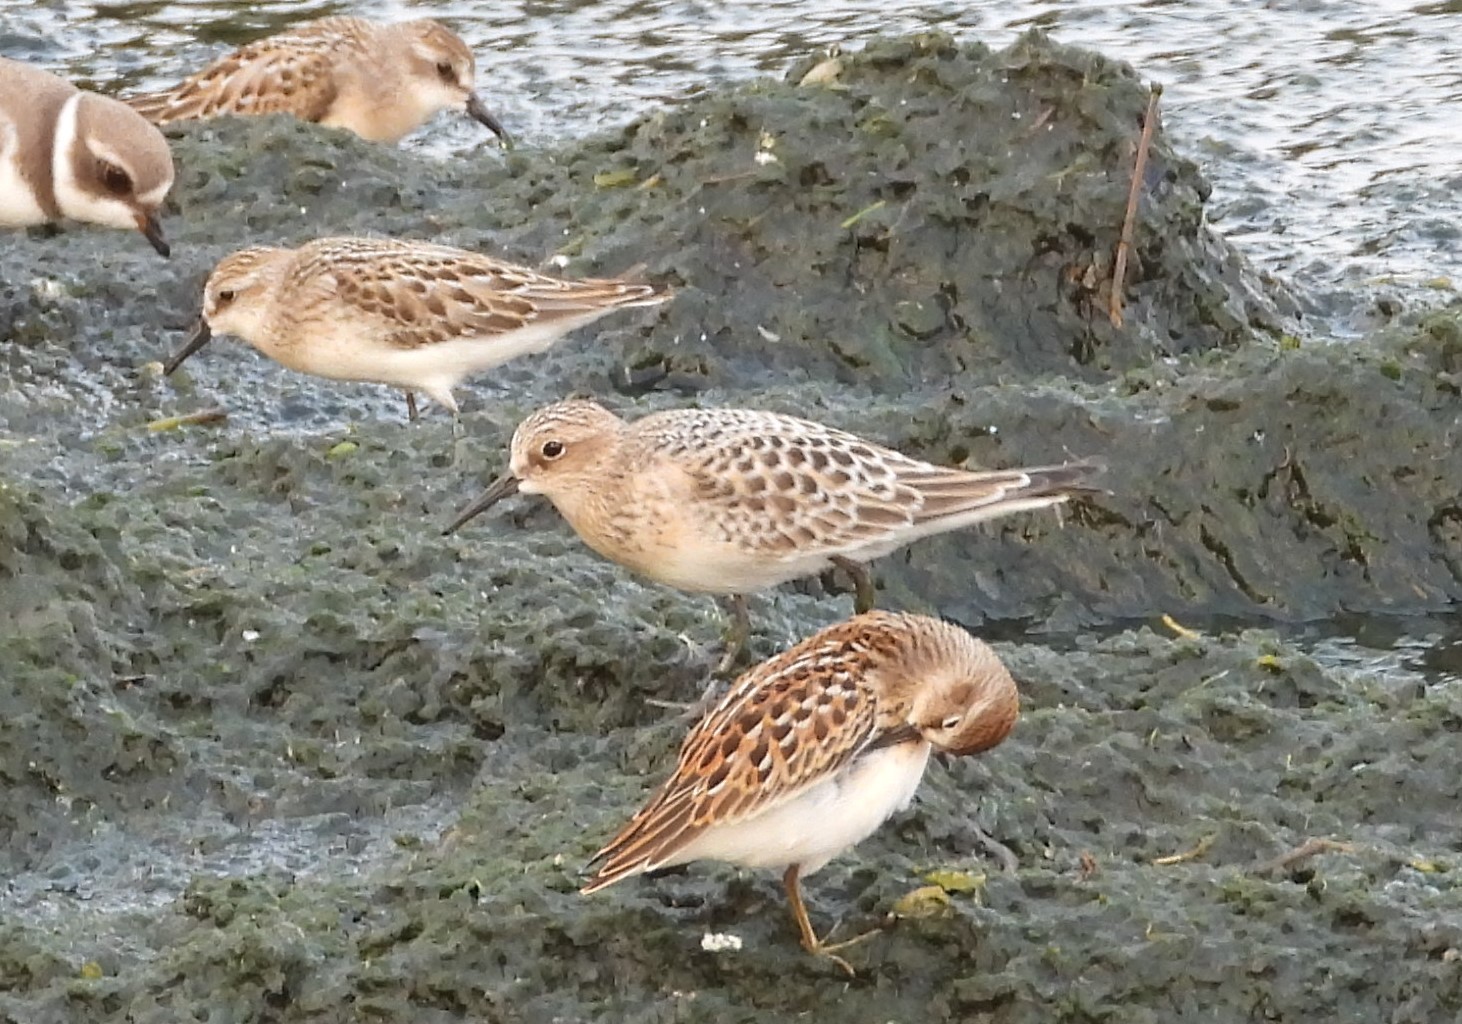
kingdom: Animalia
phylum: Chordata
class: Aves
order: Charadriiformes
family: Scolopacidae
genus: Calidris
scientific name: Calidris bairdii
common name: Baird's sandpiper
